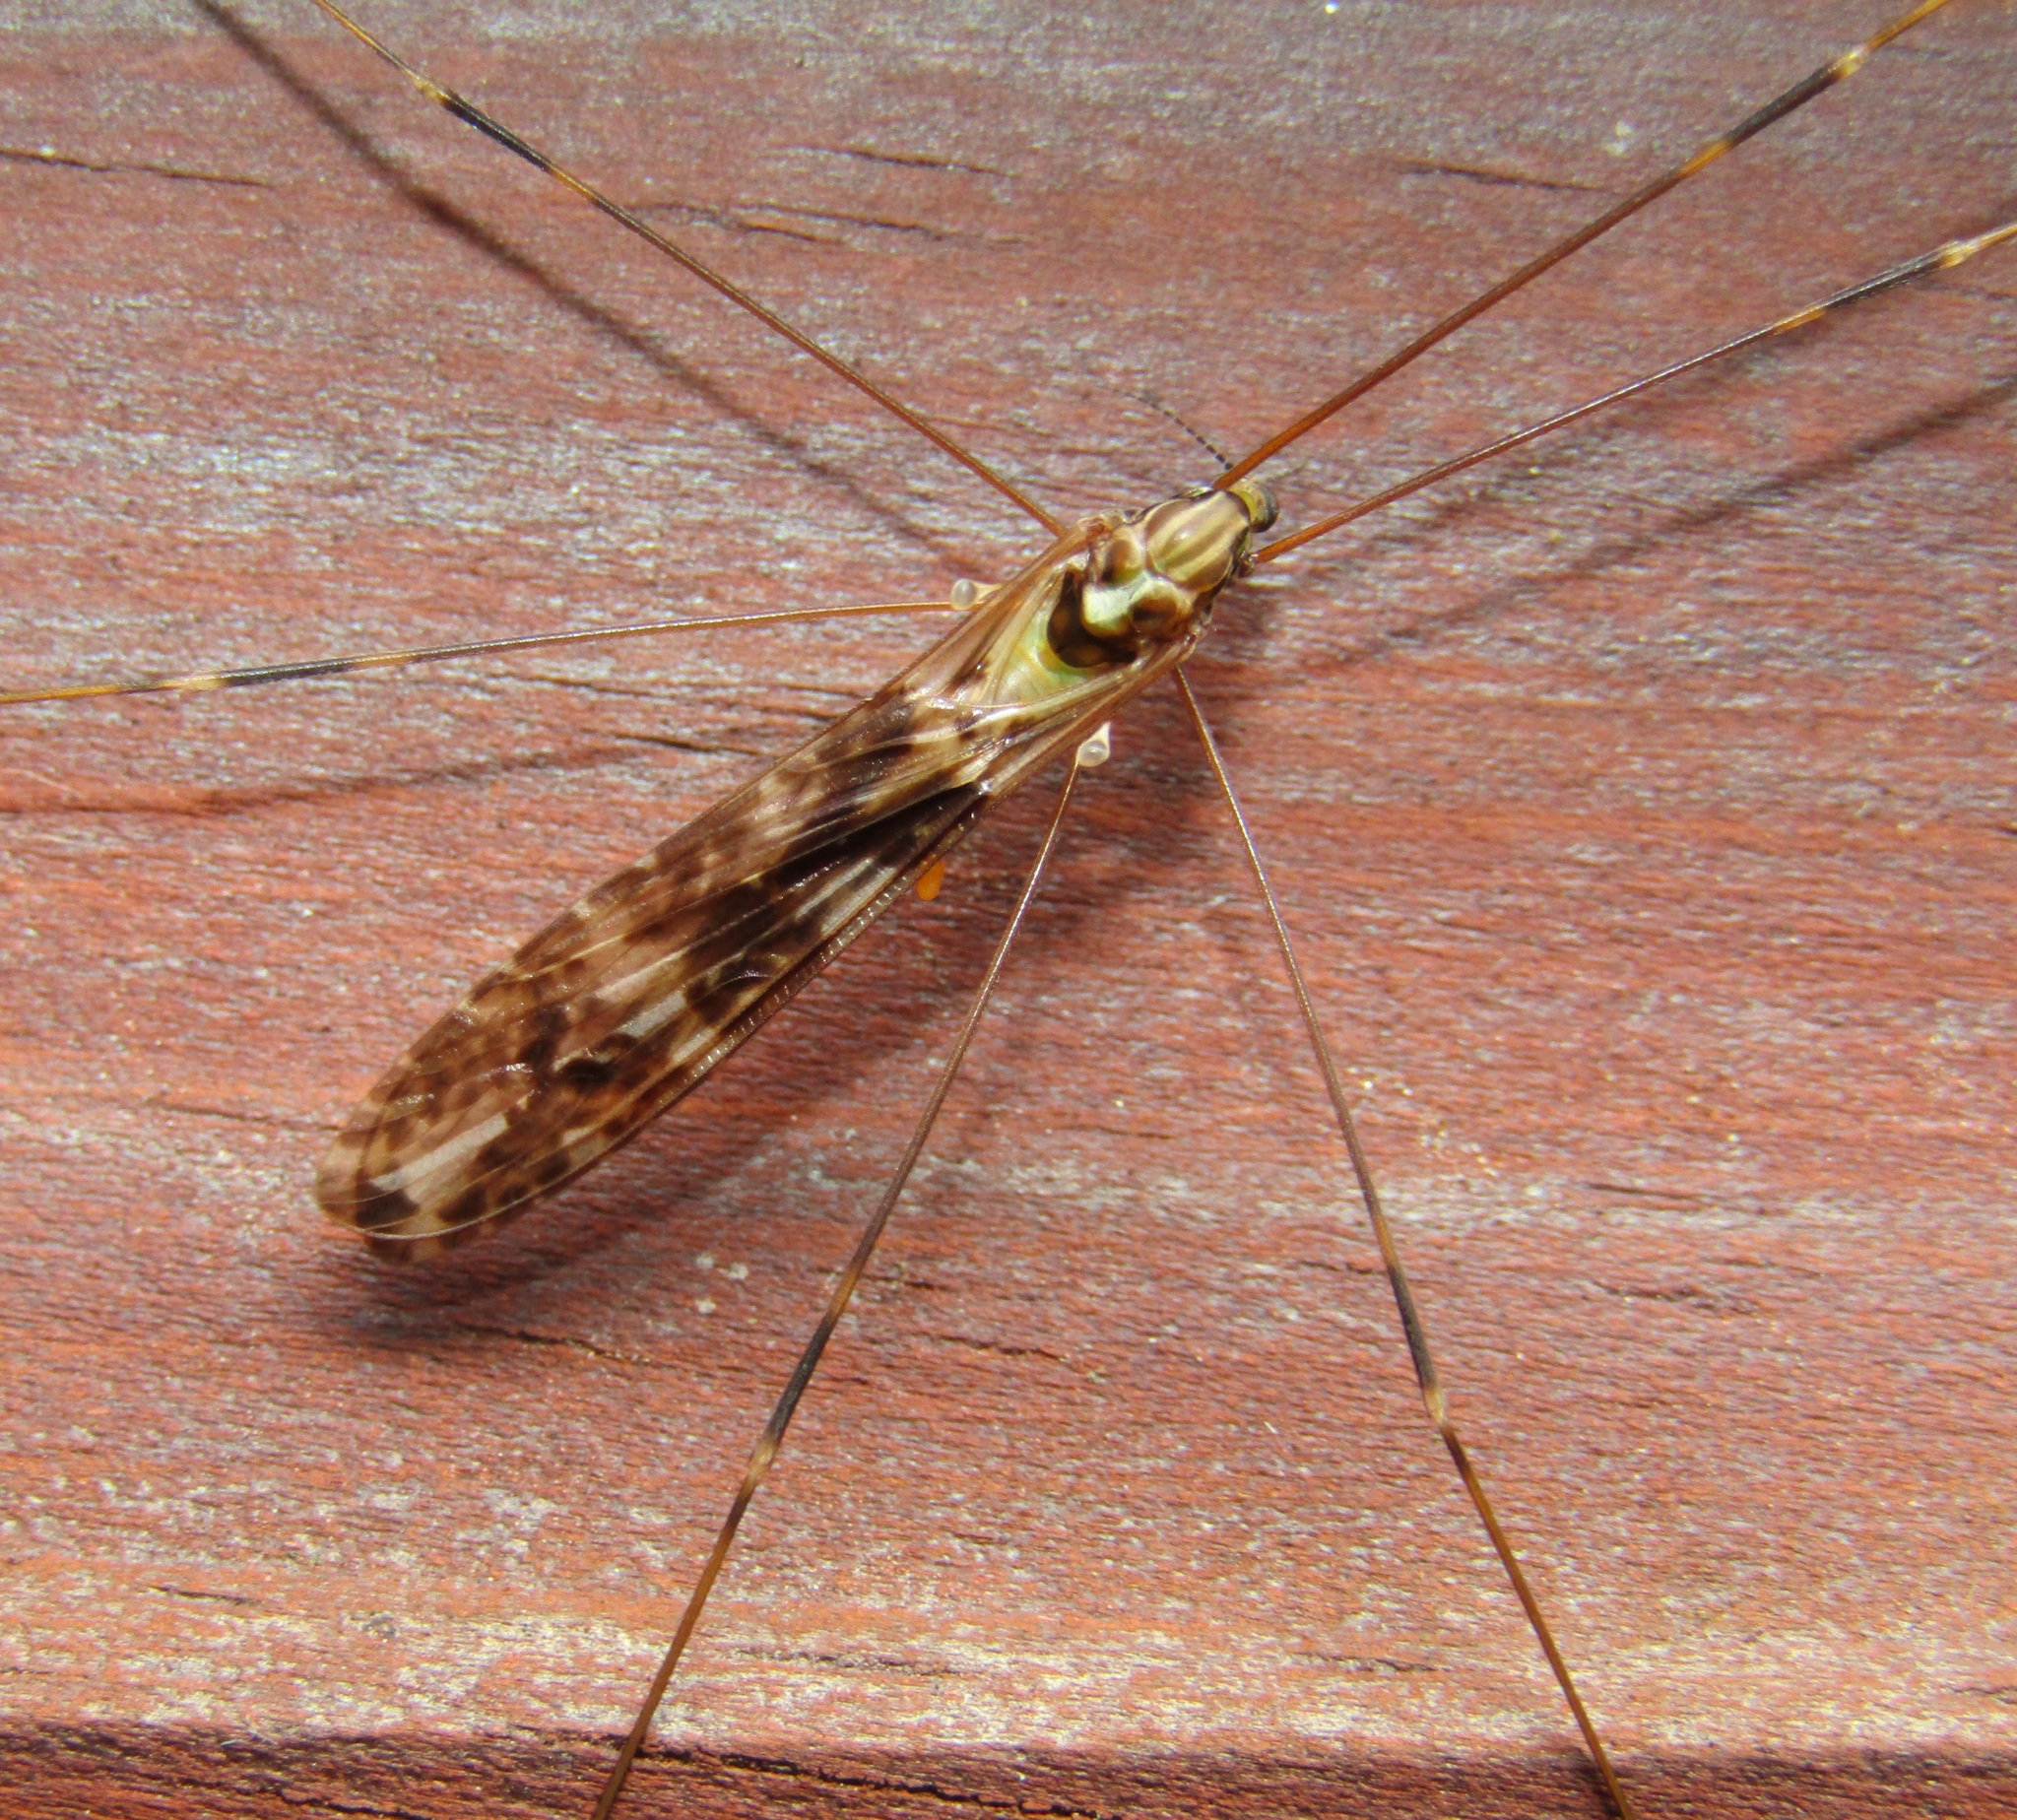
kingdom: Animalia
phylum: Arthropoda
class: Insecta
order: Diptera
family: Limoniidae
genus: Discobola
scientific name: Discobola dohrni
